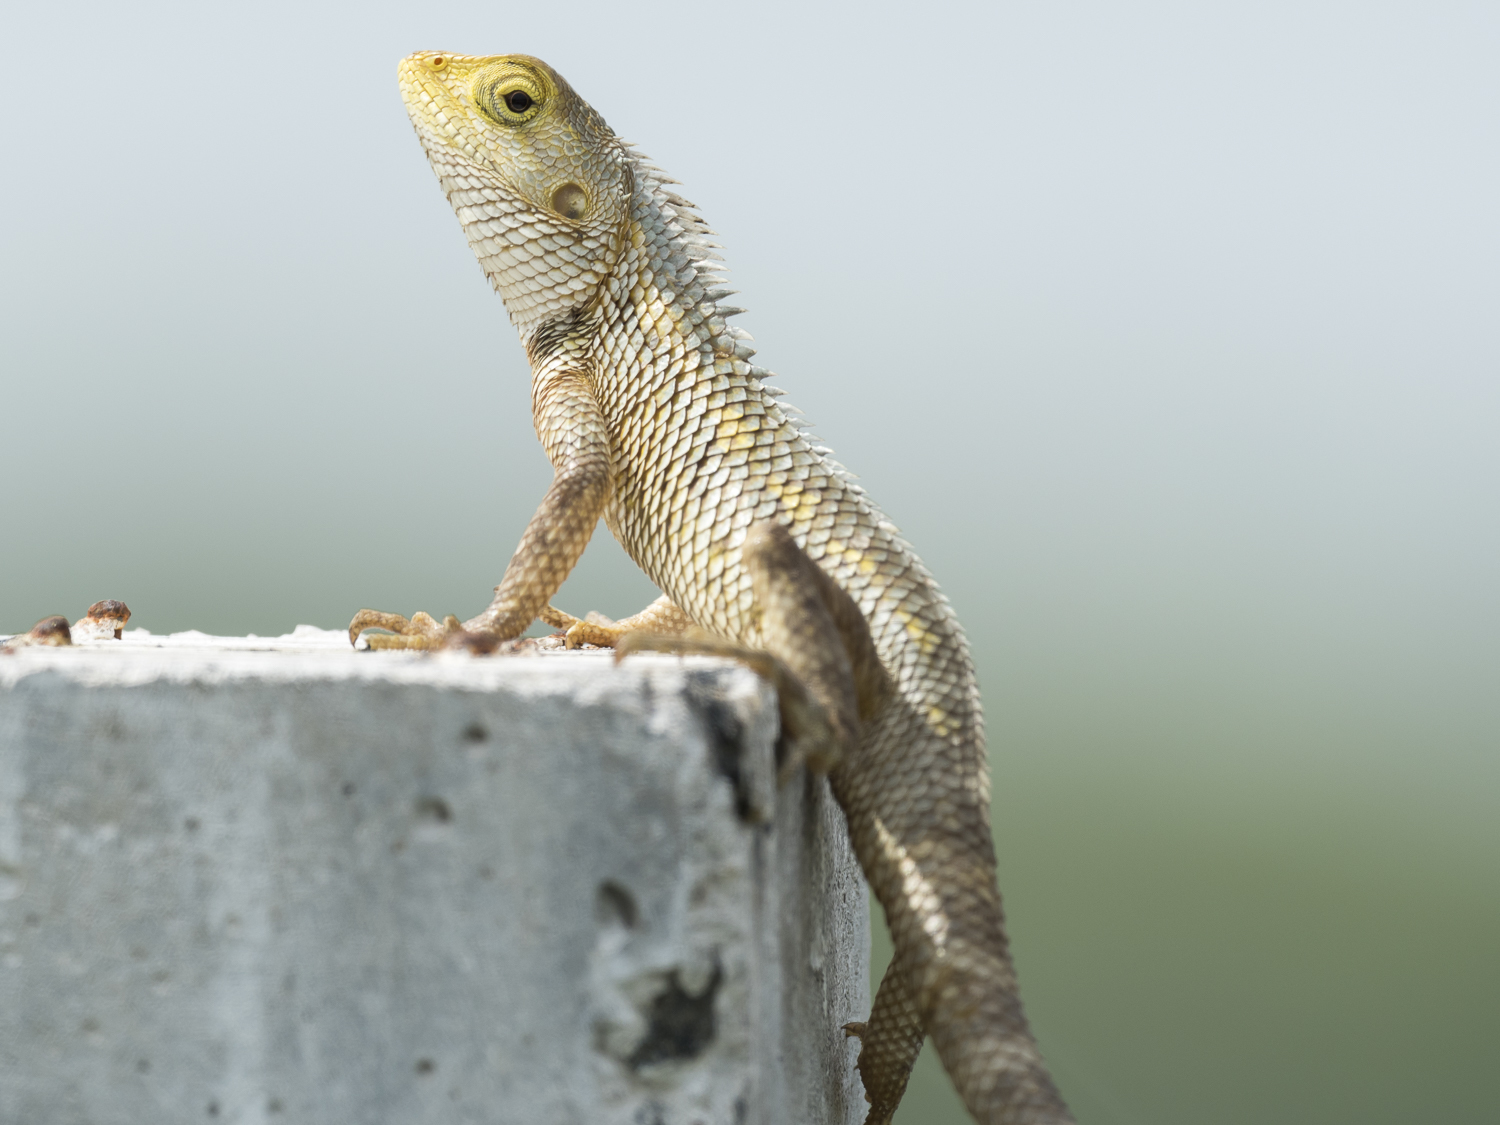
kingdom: Animalia
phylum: Chordata
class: Squamata
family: Agamidae
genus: Calotes
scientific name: Calotes versicolor
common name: Oriental garden lizard
